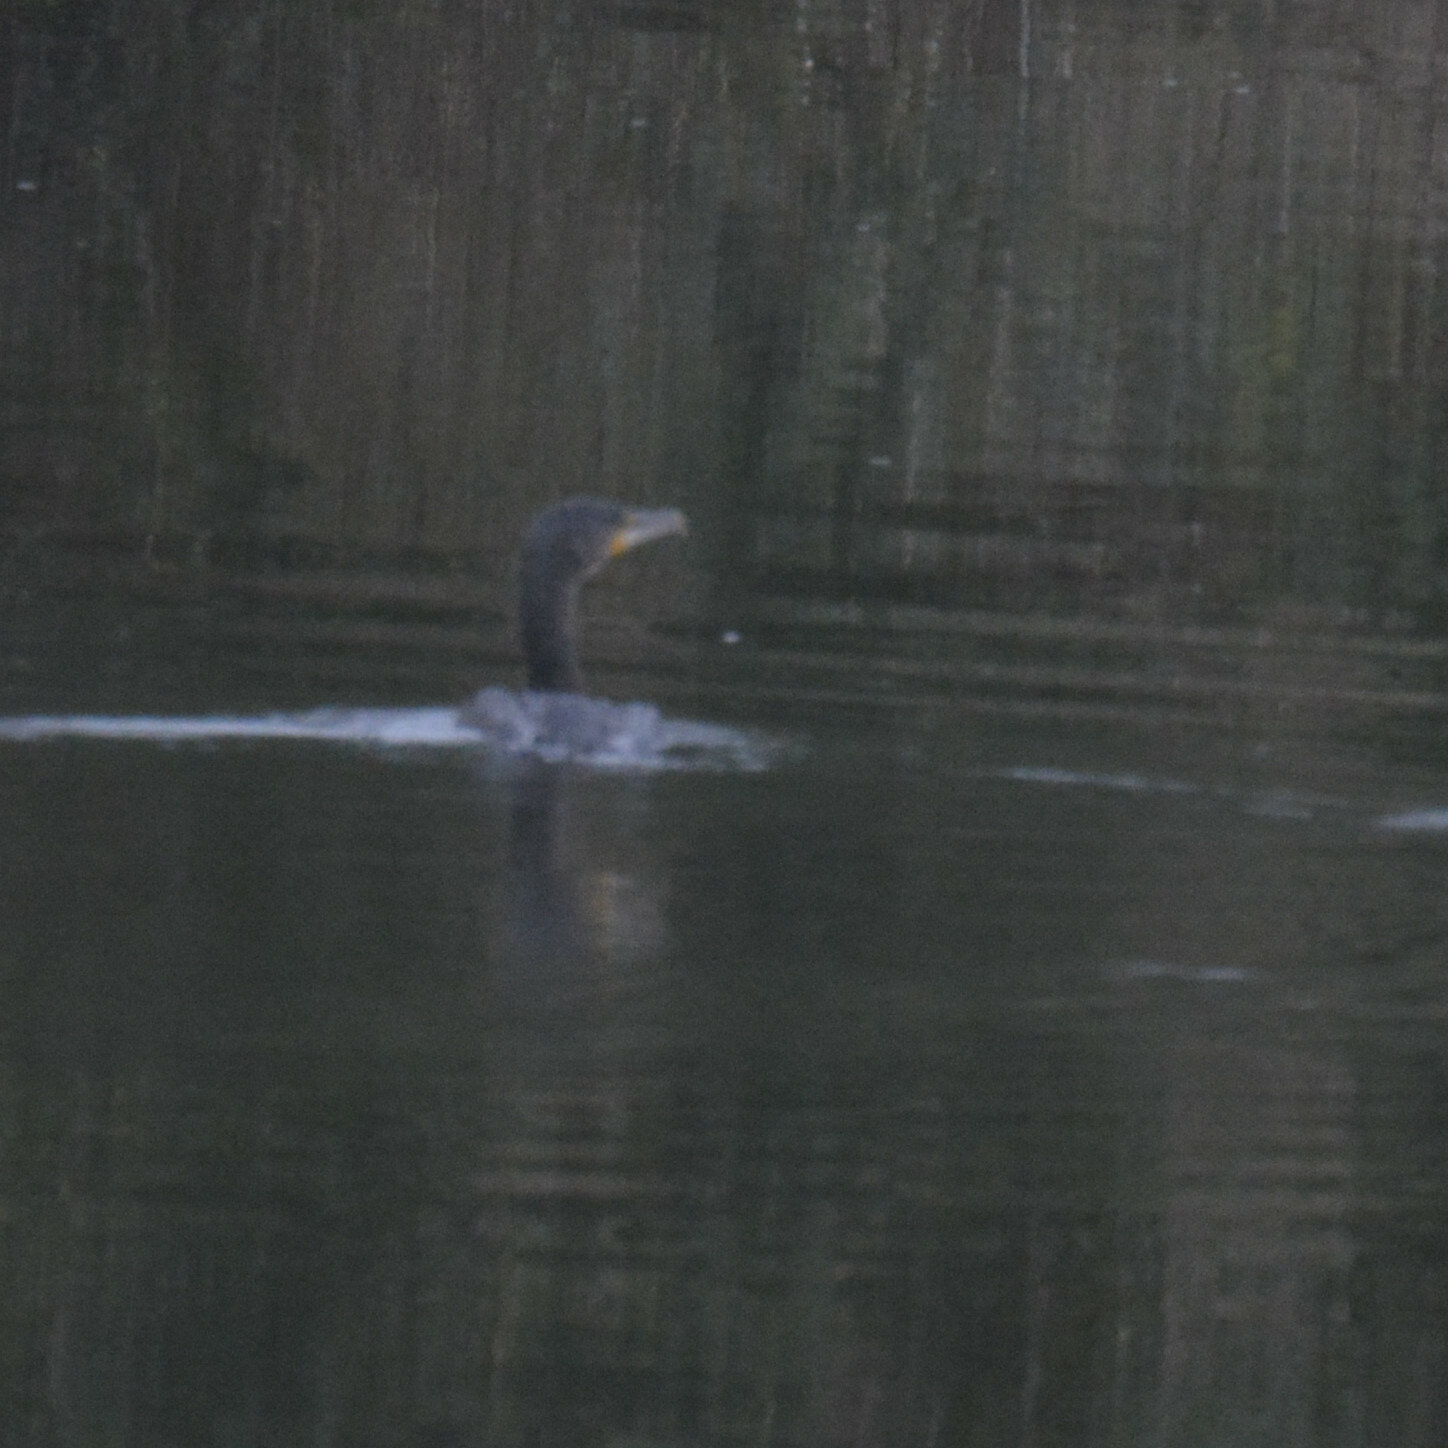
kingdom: Animalia
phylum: Chordata
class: Aves
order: Suliformes
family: Phalacrocoracidae
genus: Phalacrocorax
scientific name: Phalacrocorax carbo
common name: Great cormorant
